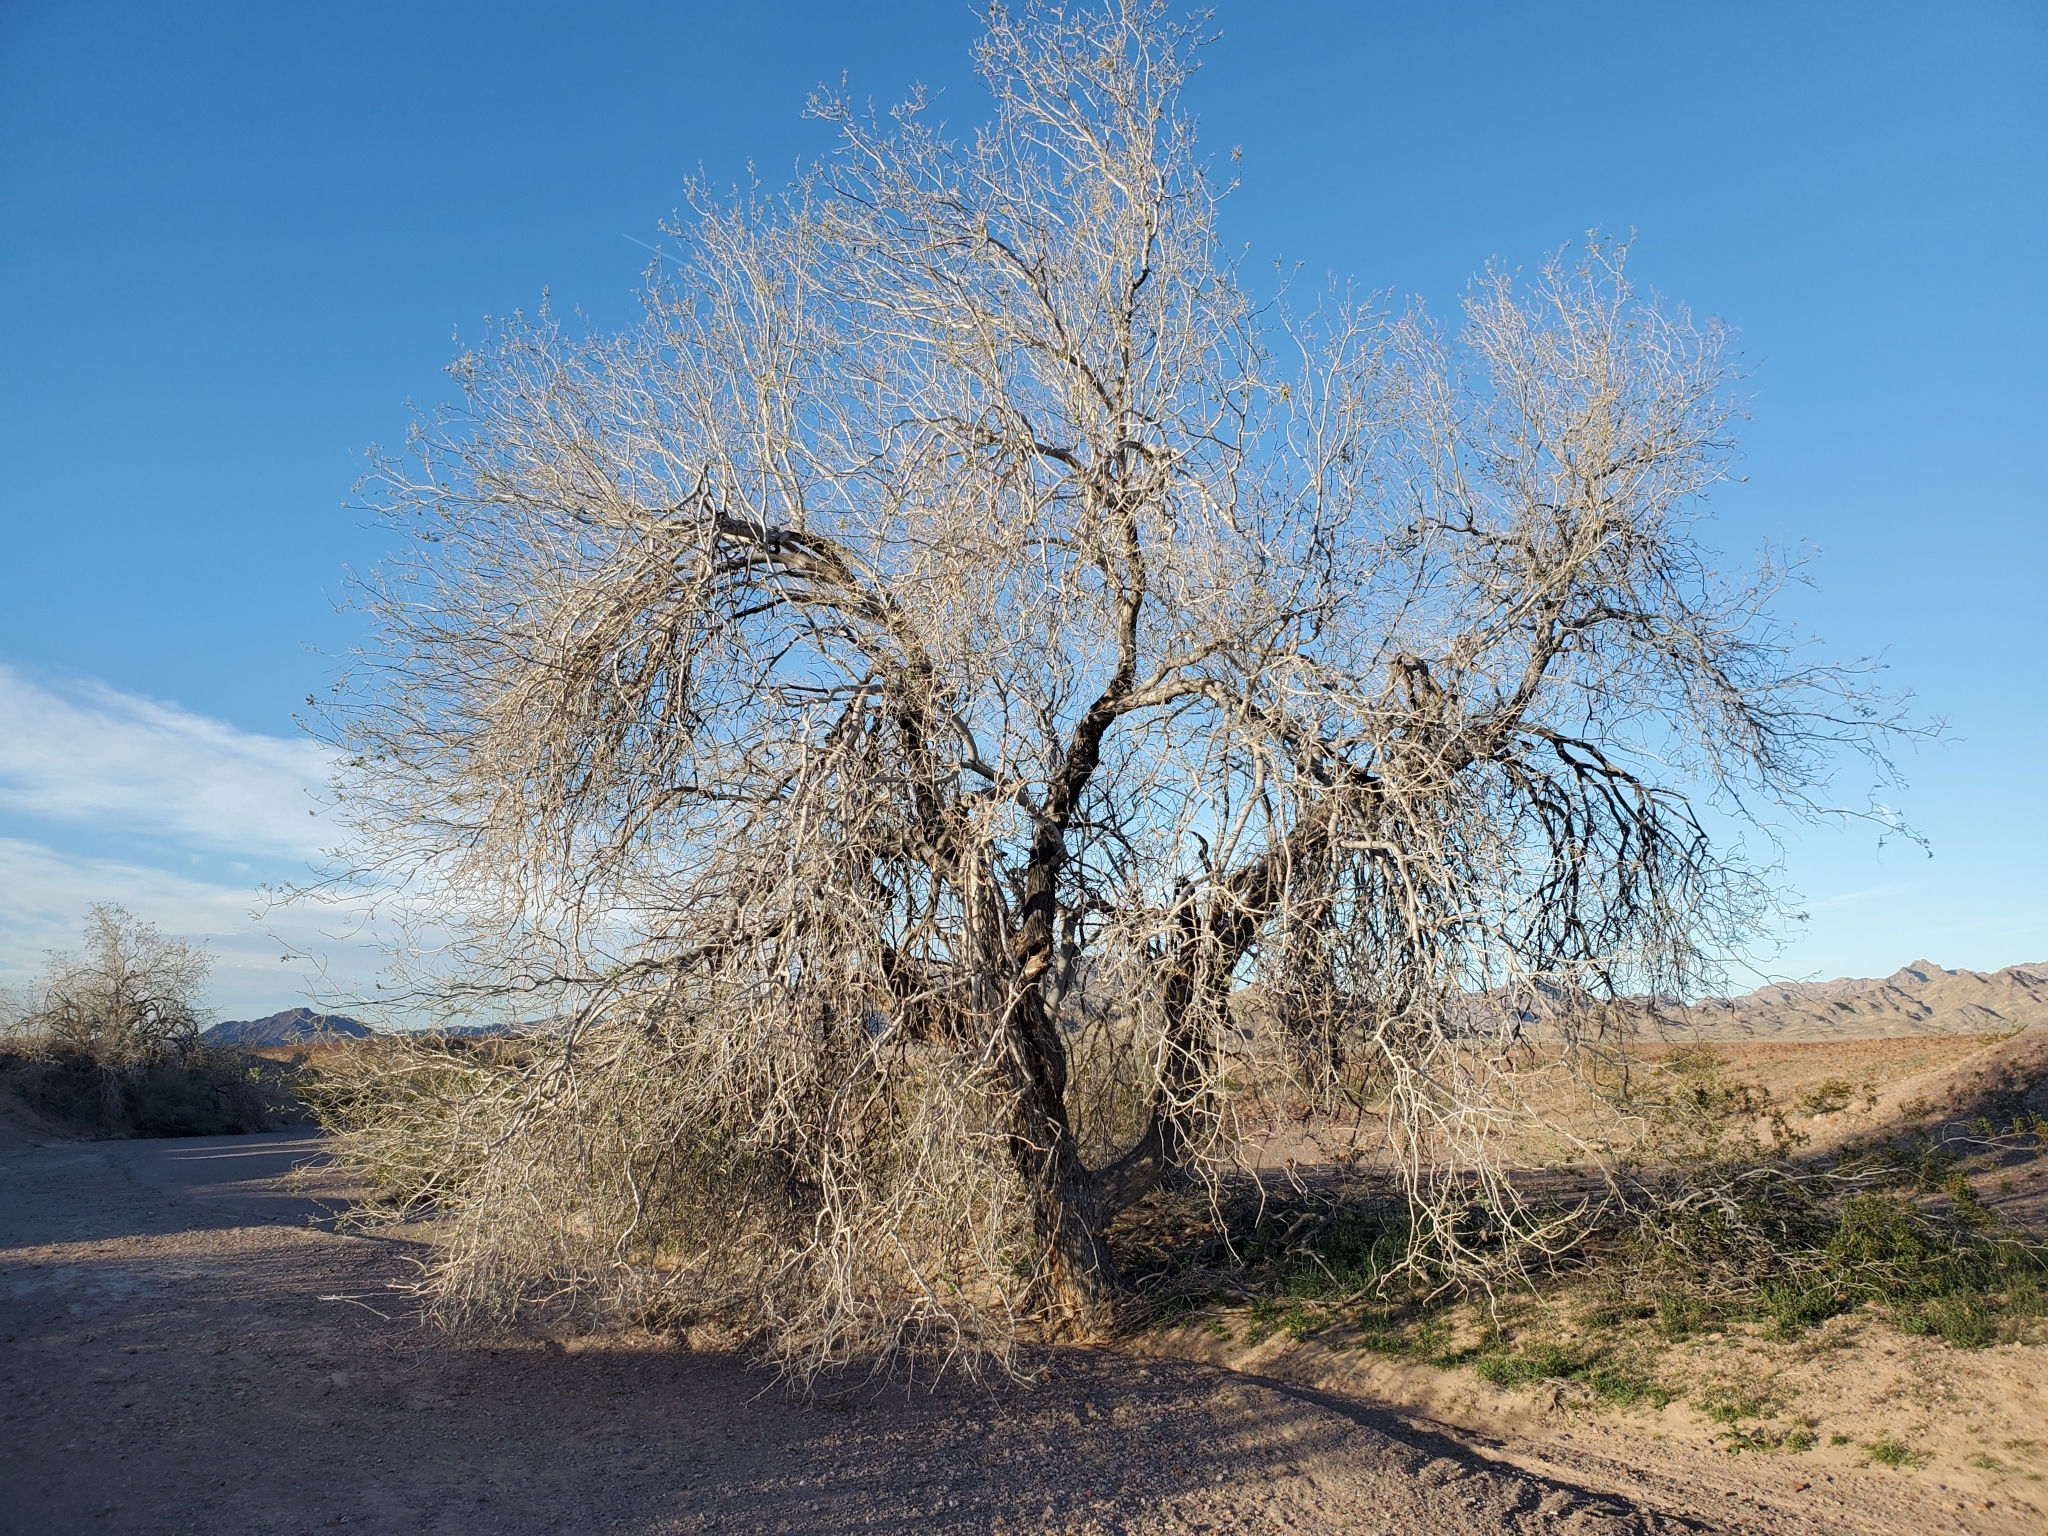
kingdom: Plantae
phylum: Tracheophyta
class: Magnoliopsida
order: Fabales
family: Fabaceae
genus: Olneya
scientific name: Olneya tesota
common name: Desert ironwood
